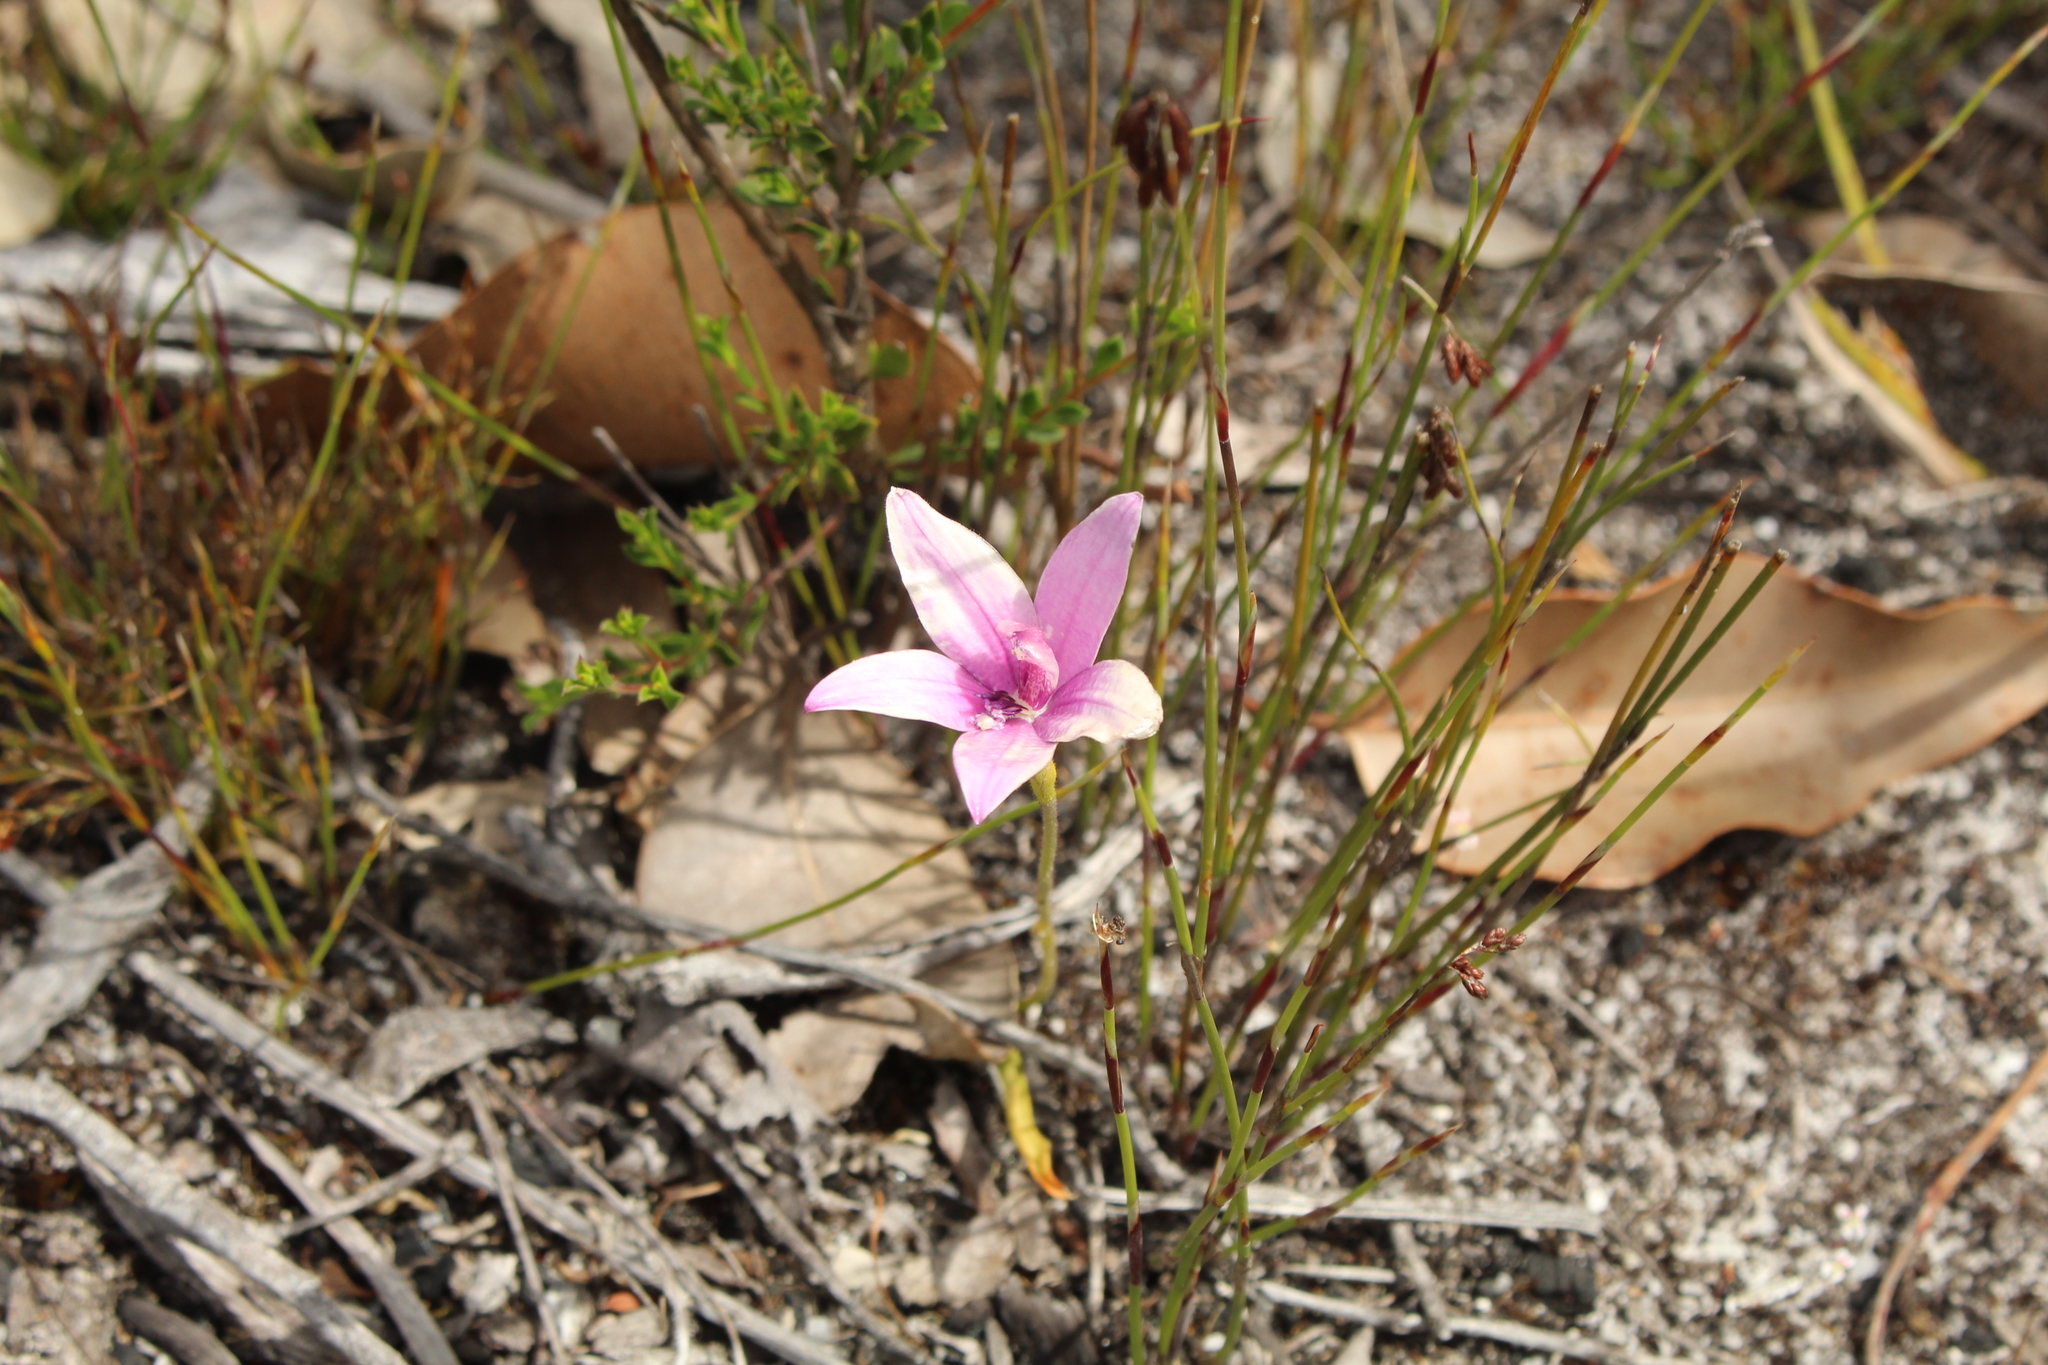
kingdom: Plantae
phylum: Tracheophyta
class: Liliopsida
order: Asparagales
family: Orchidaceae
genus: Caladenia
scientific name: Caladenia emarginata
